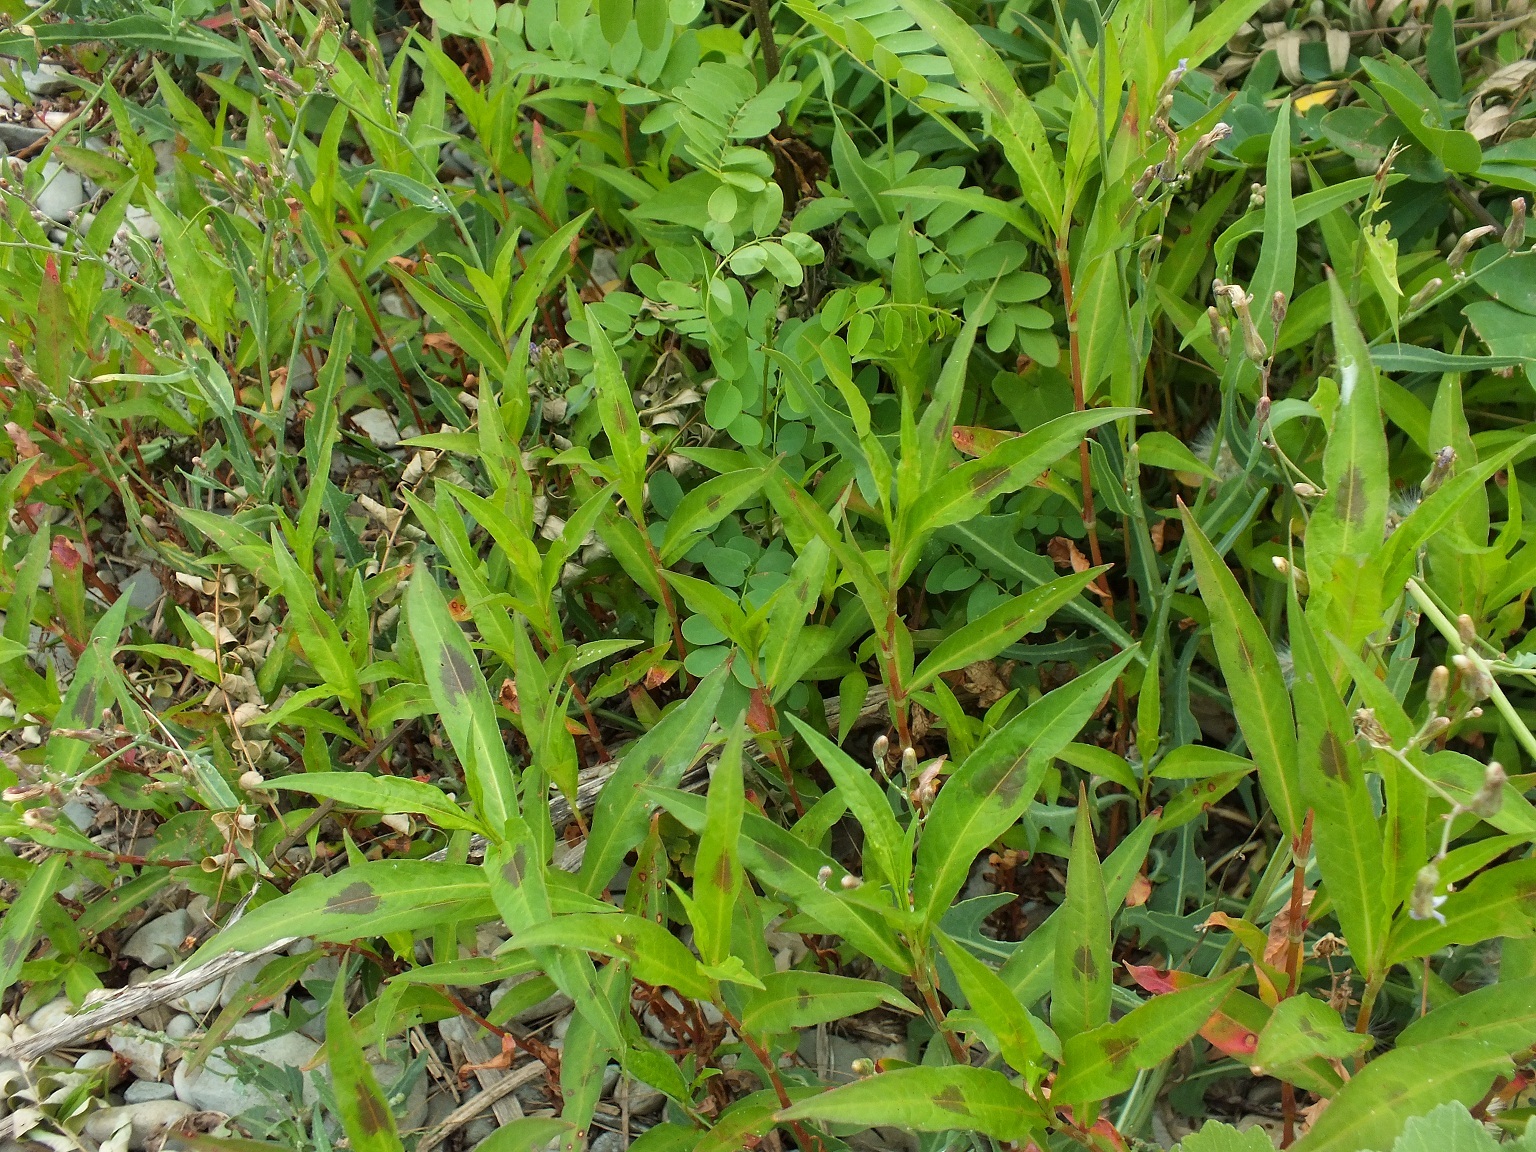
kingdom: Plantae
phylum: Tracheophyta
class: Magnoliopsida
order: Caryophyllales
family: Polygonaceae
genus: Persicaria
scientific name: Persicaria maculosa
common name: Redshank
